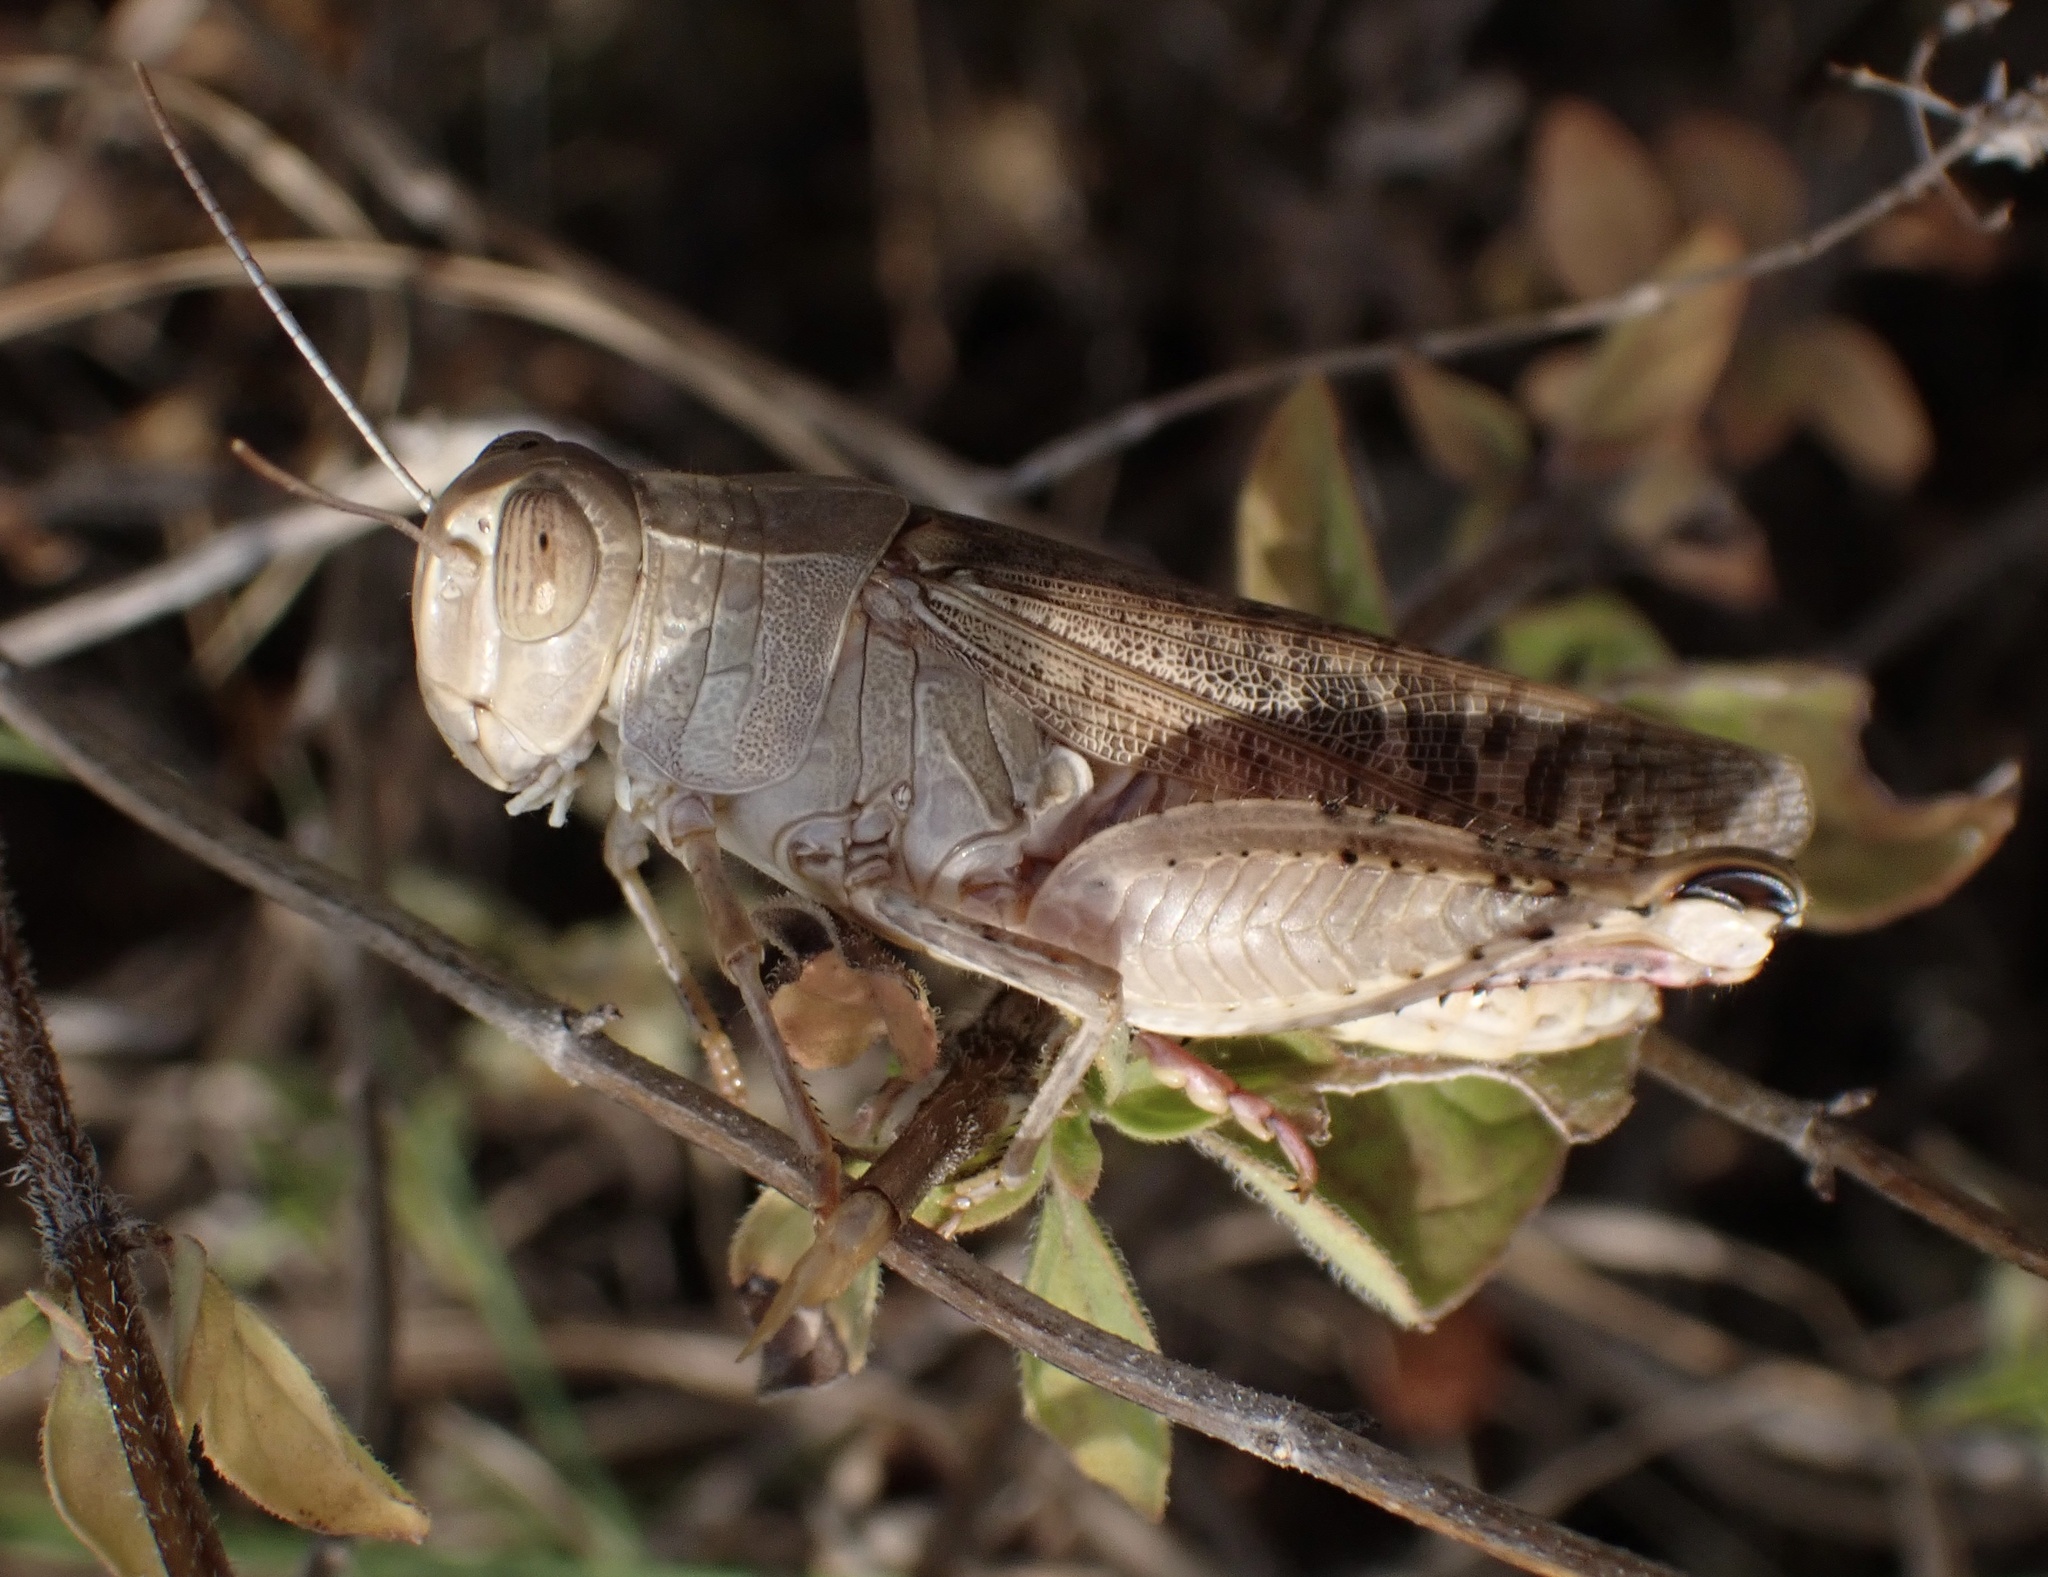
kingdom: Animalia
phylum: Arthropoda
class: Insecta
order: Orthoptera
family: Acrididae
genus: Calliptamus
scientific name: Calliptamus italicus
